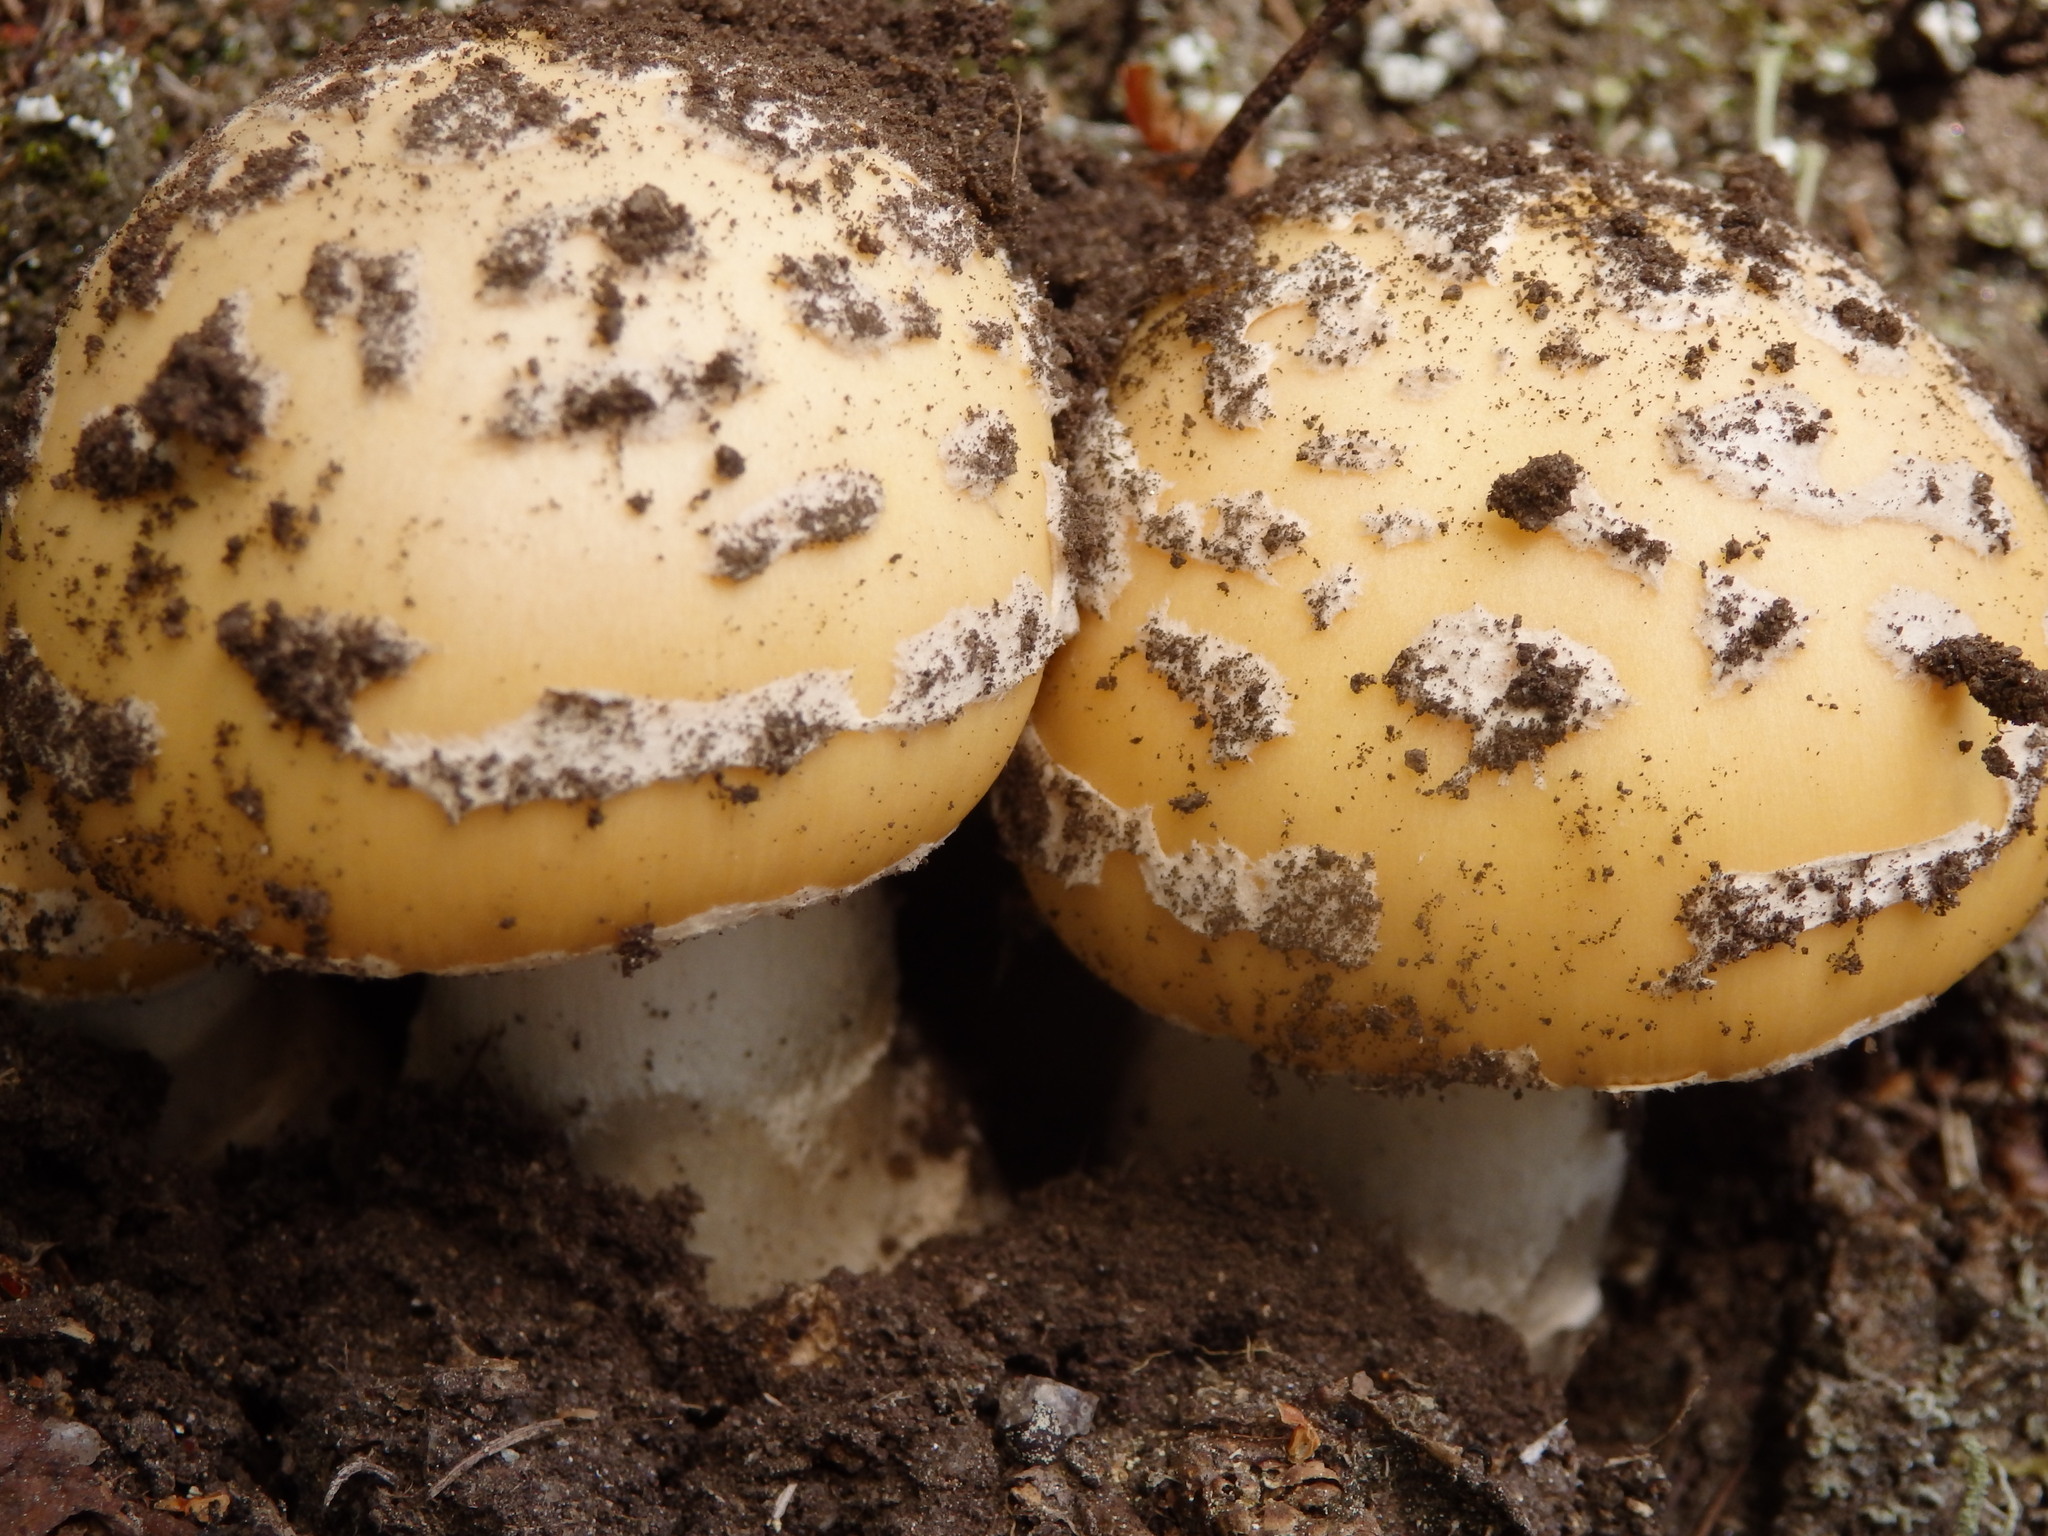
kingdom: Fungi
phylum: Basidiomycota
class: Agaricomycetes
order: Agaricales
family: Amanitaceae
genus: Amanita
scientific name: Amanita gemmata
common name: Jewelled amanita
